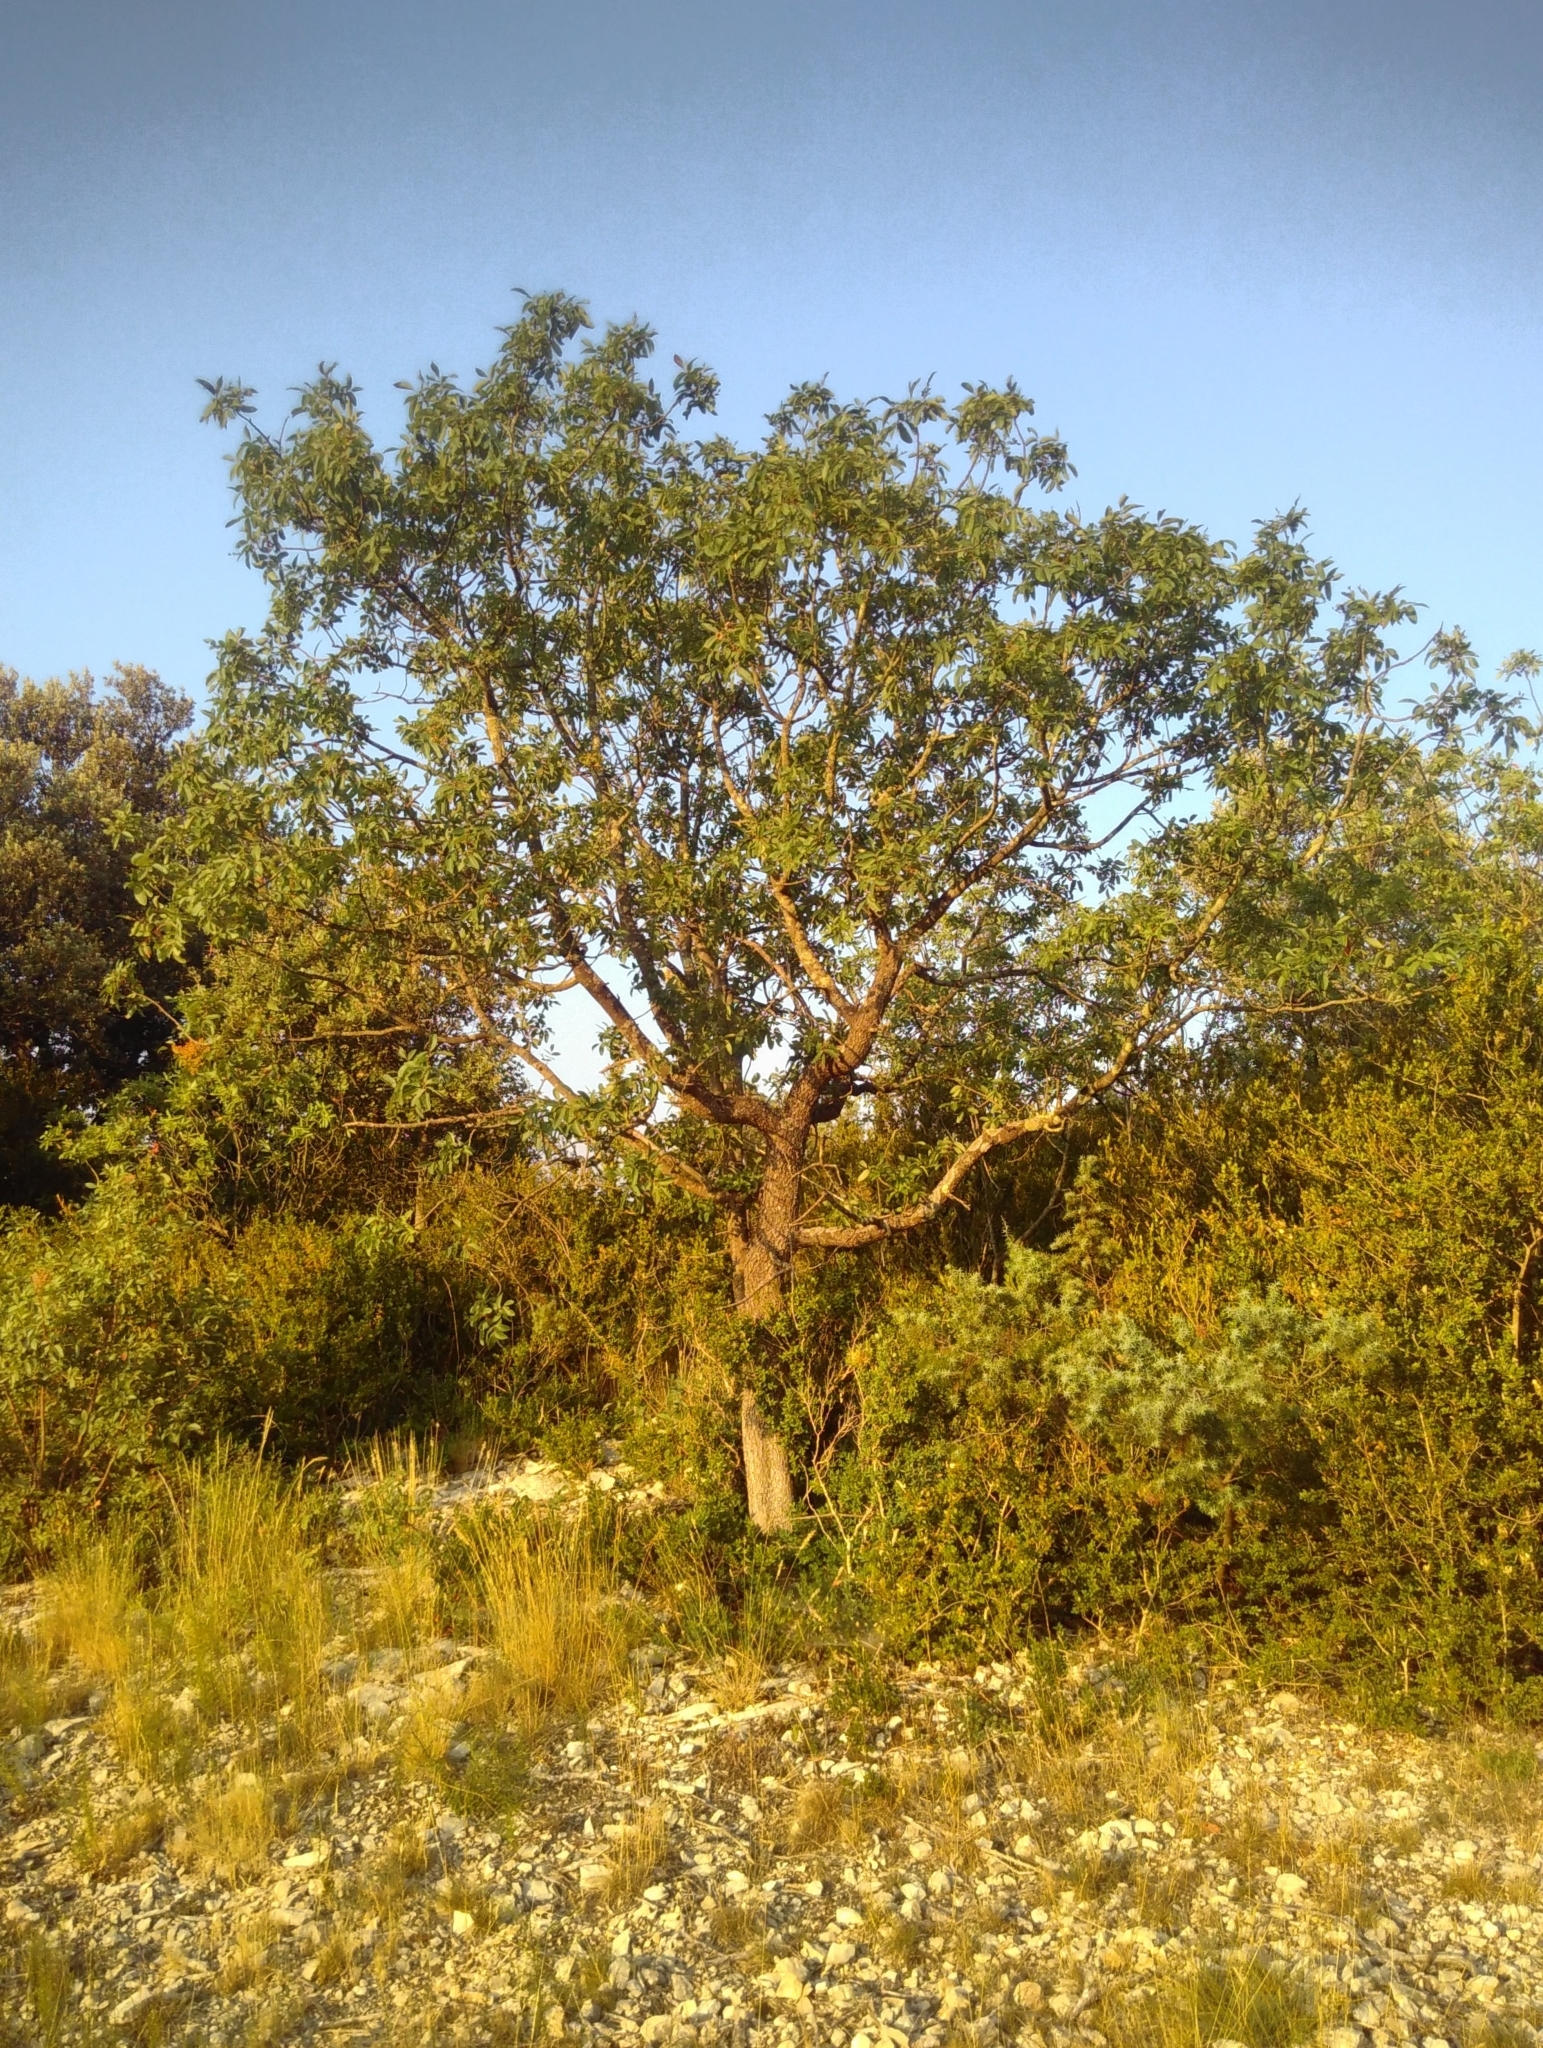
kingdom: Plantae
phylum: Tracheophyta
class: Magnoliopsida
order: Sapindales
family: Anacardiaceae
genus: Pistacia
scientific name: Pistacia terebinthus
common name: Terebinth
